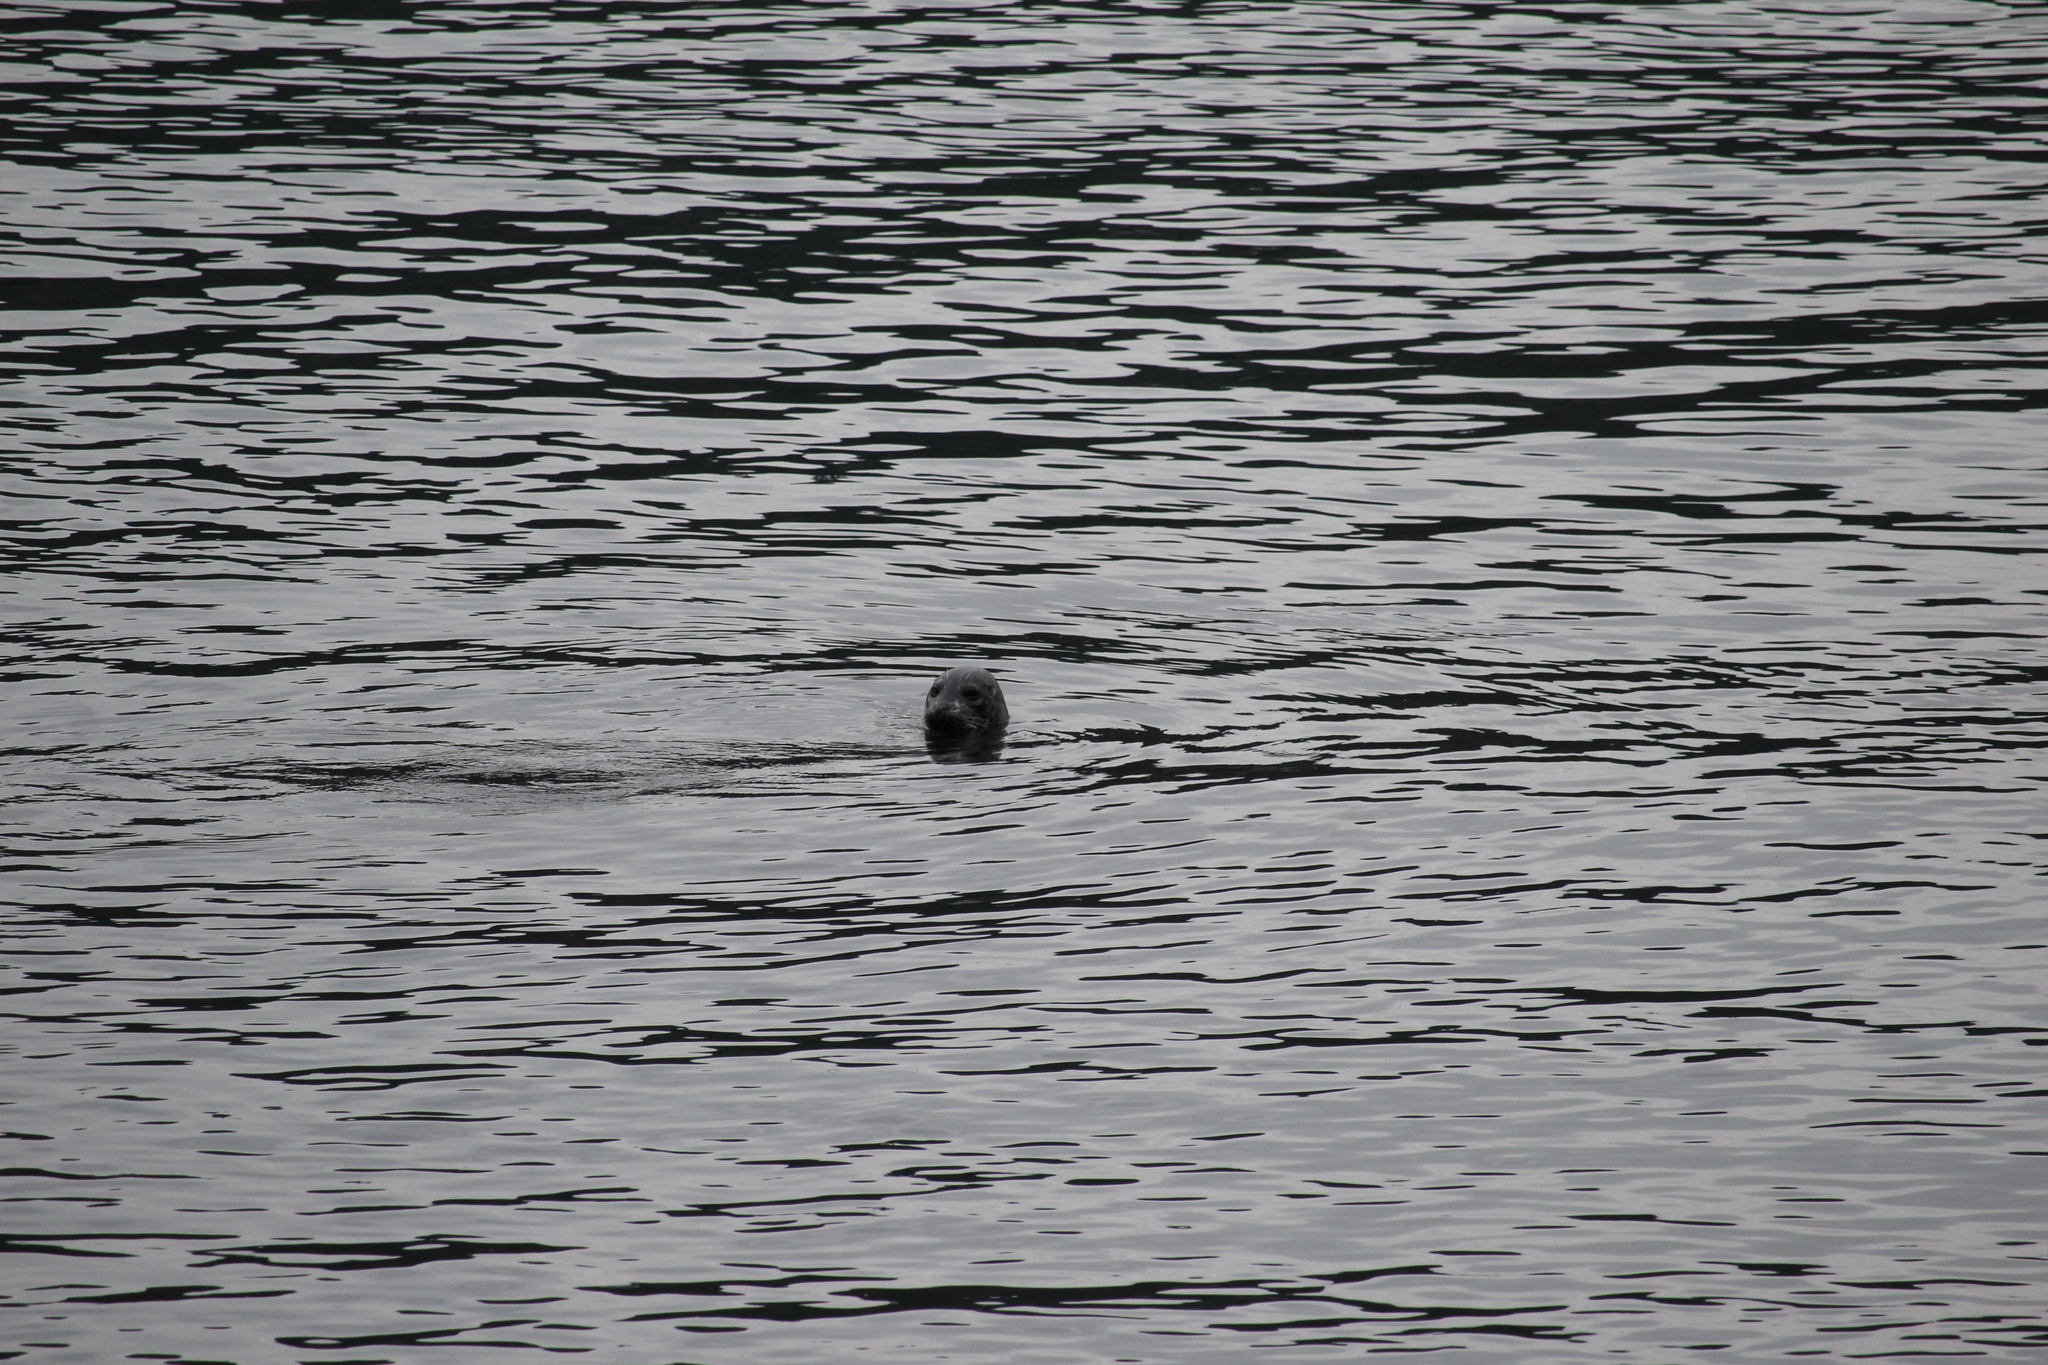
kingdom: Animalia
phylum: Chordata
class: Mammalia
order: Carnivora
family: Phocidae
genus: Phoca
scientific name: Phoca vitulina
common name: Harbor seal
